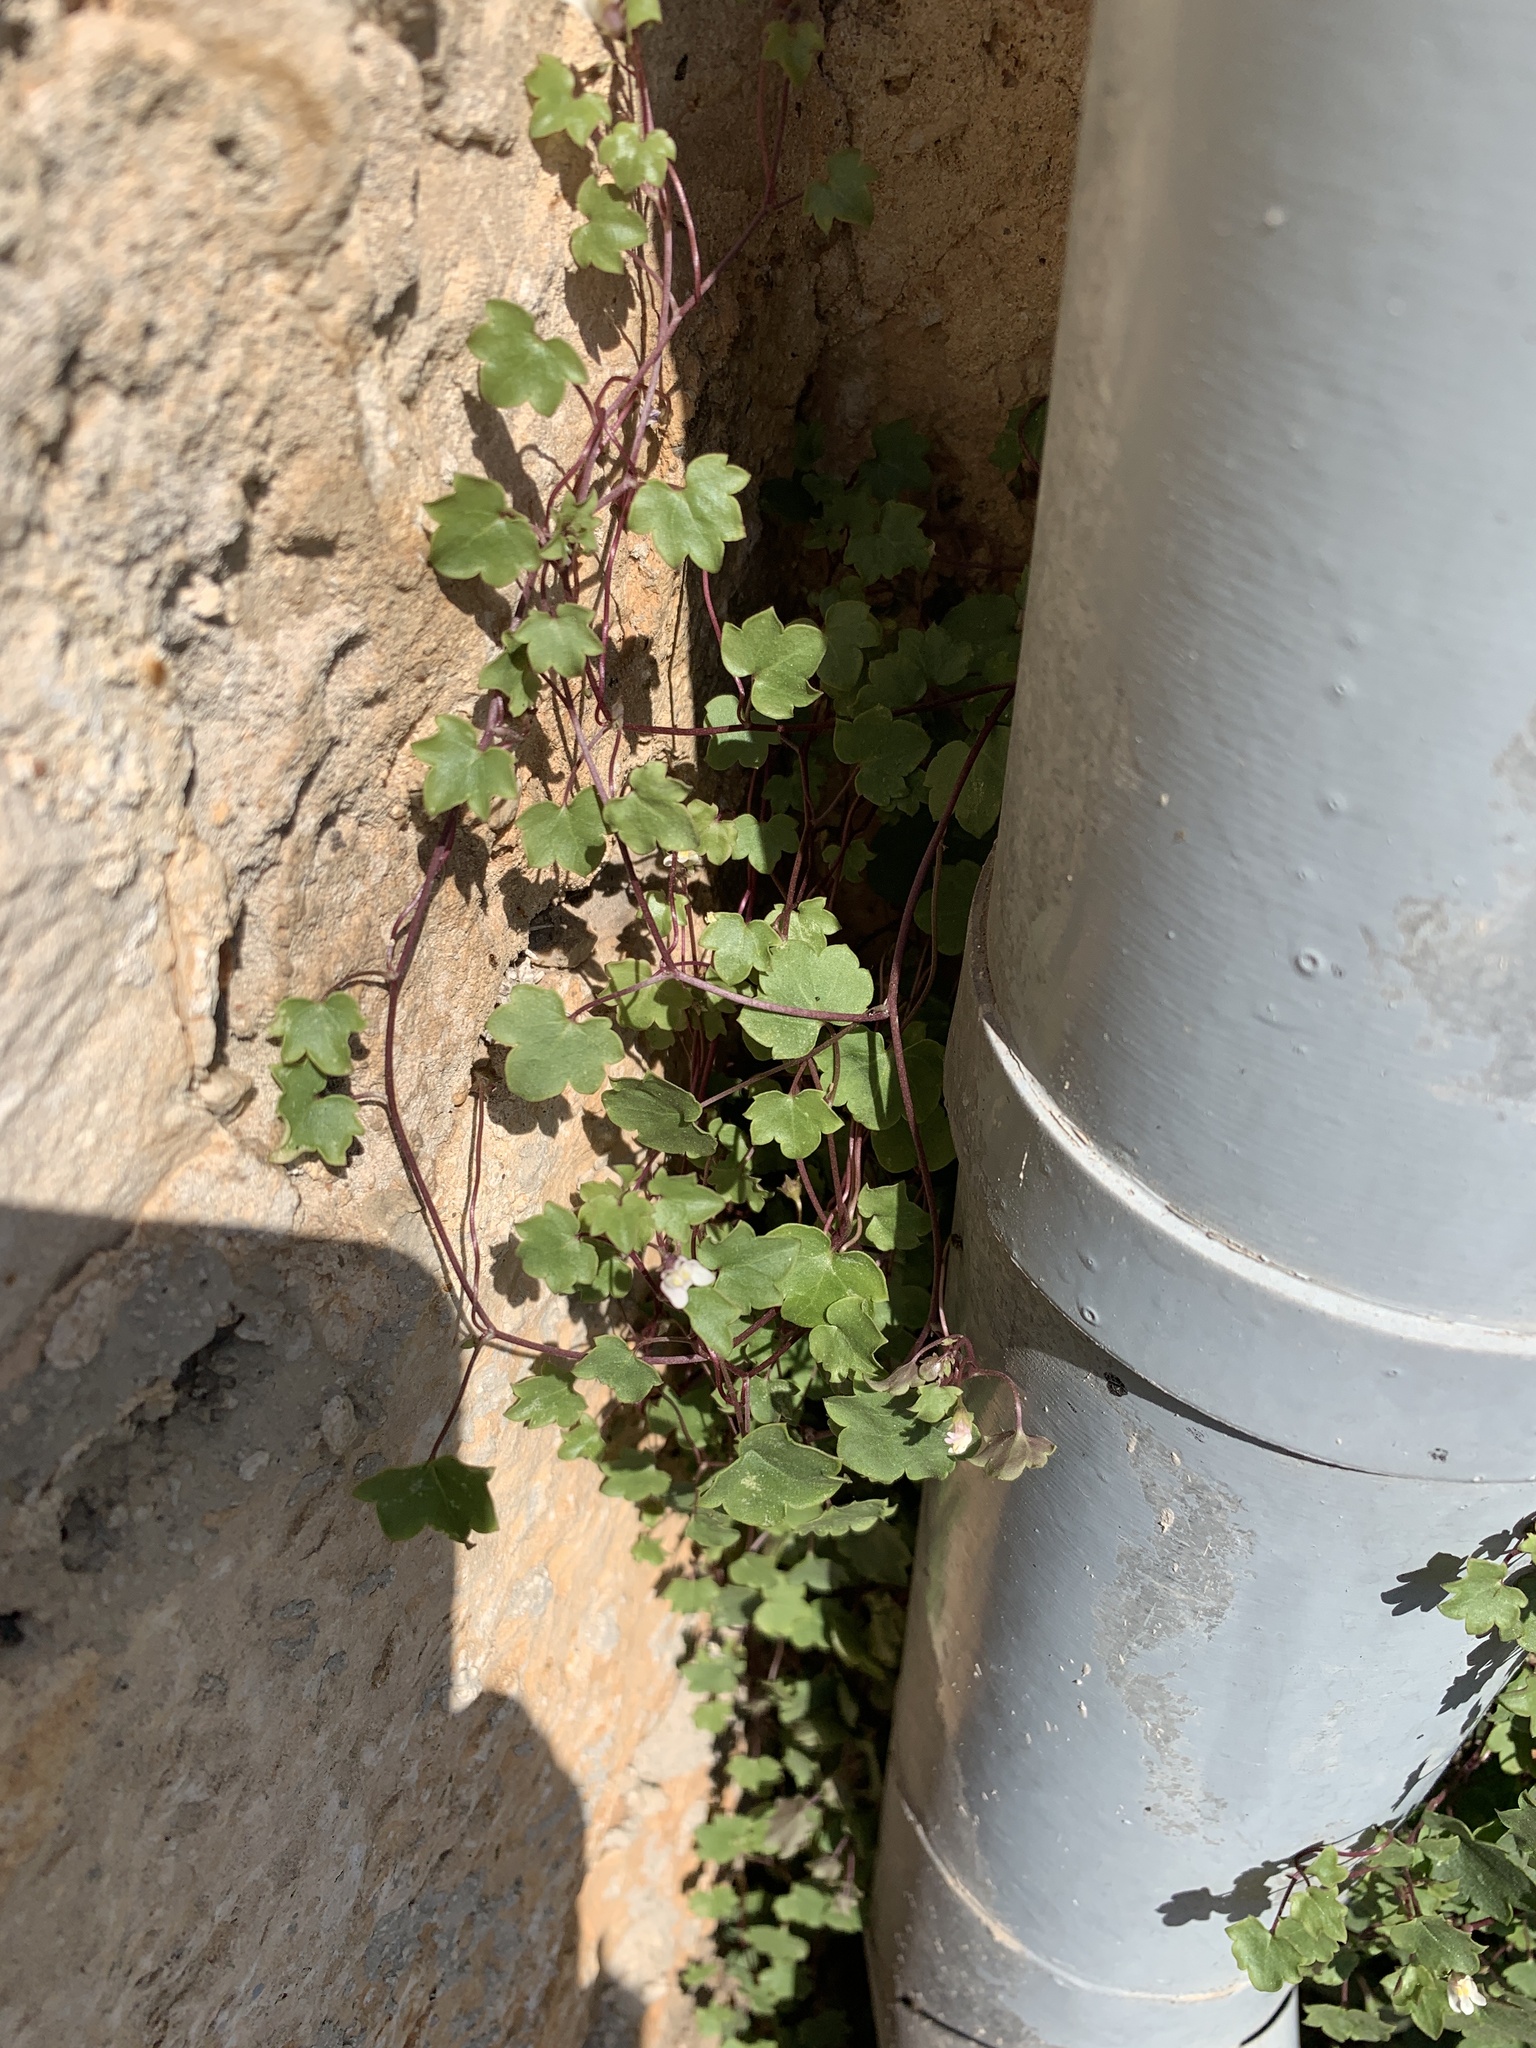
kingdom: Plantae
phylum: Tracheophyta
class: Magnoliopsida
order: Lamiales
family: Plantaginaceae
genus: Cymbalaria
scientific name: Cymbalaria muralis
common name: Ivy-leaved toadflax
